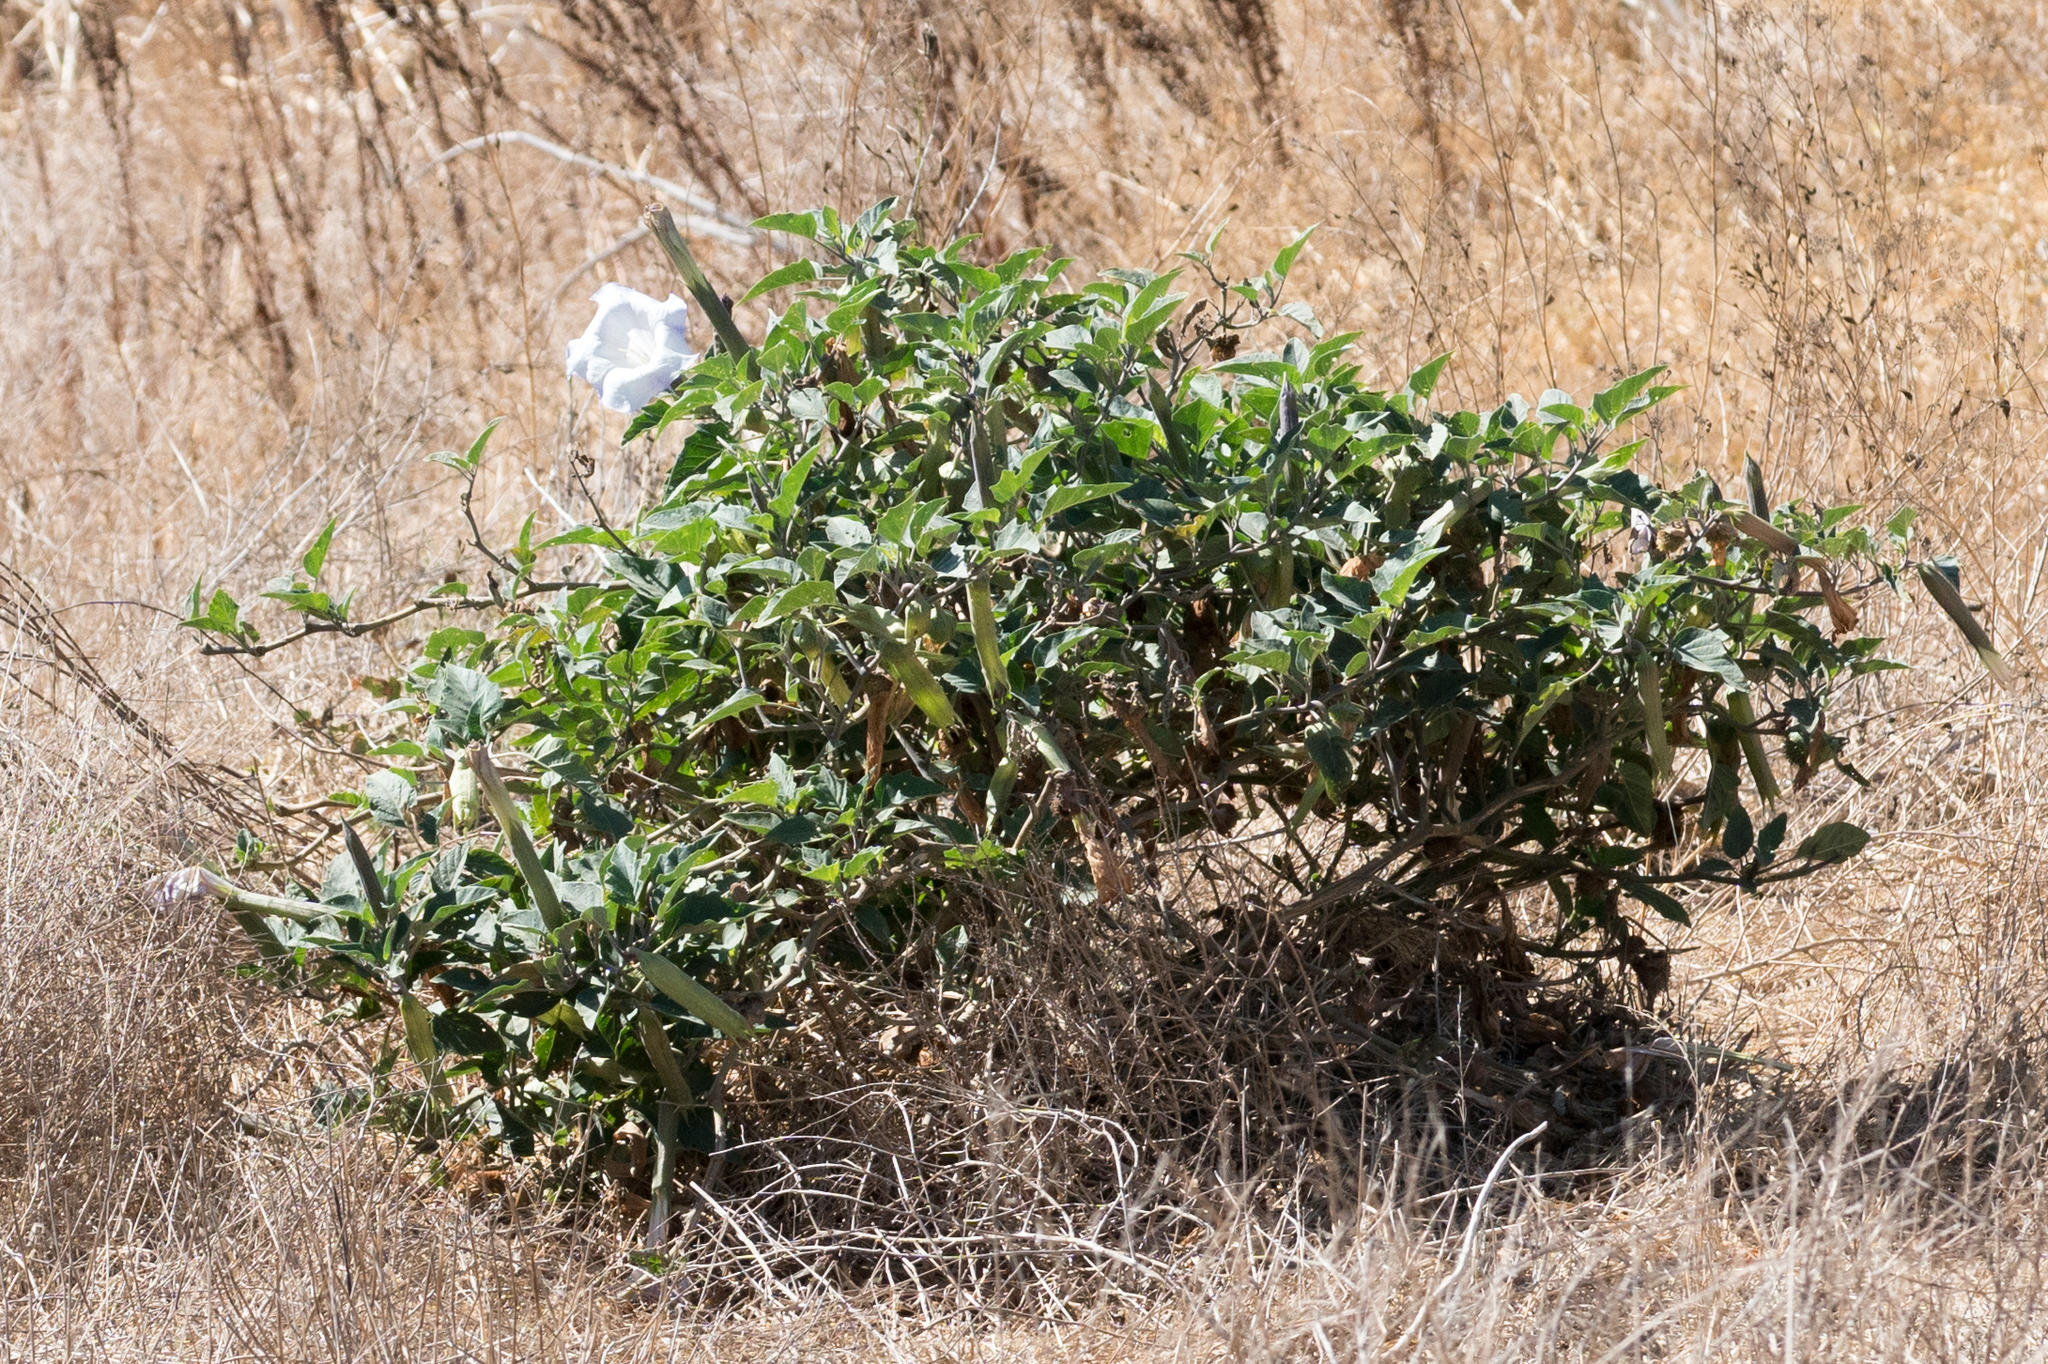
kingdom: Plantae
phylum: Tracheophyta
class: Magnoliopsida
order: Solanales
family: Solanaceae
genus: Datura
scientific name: Datura wrightii
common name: Sacred thorn-apple
